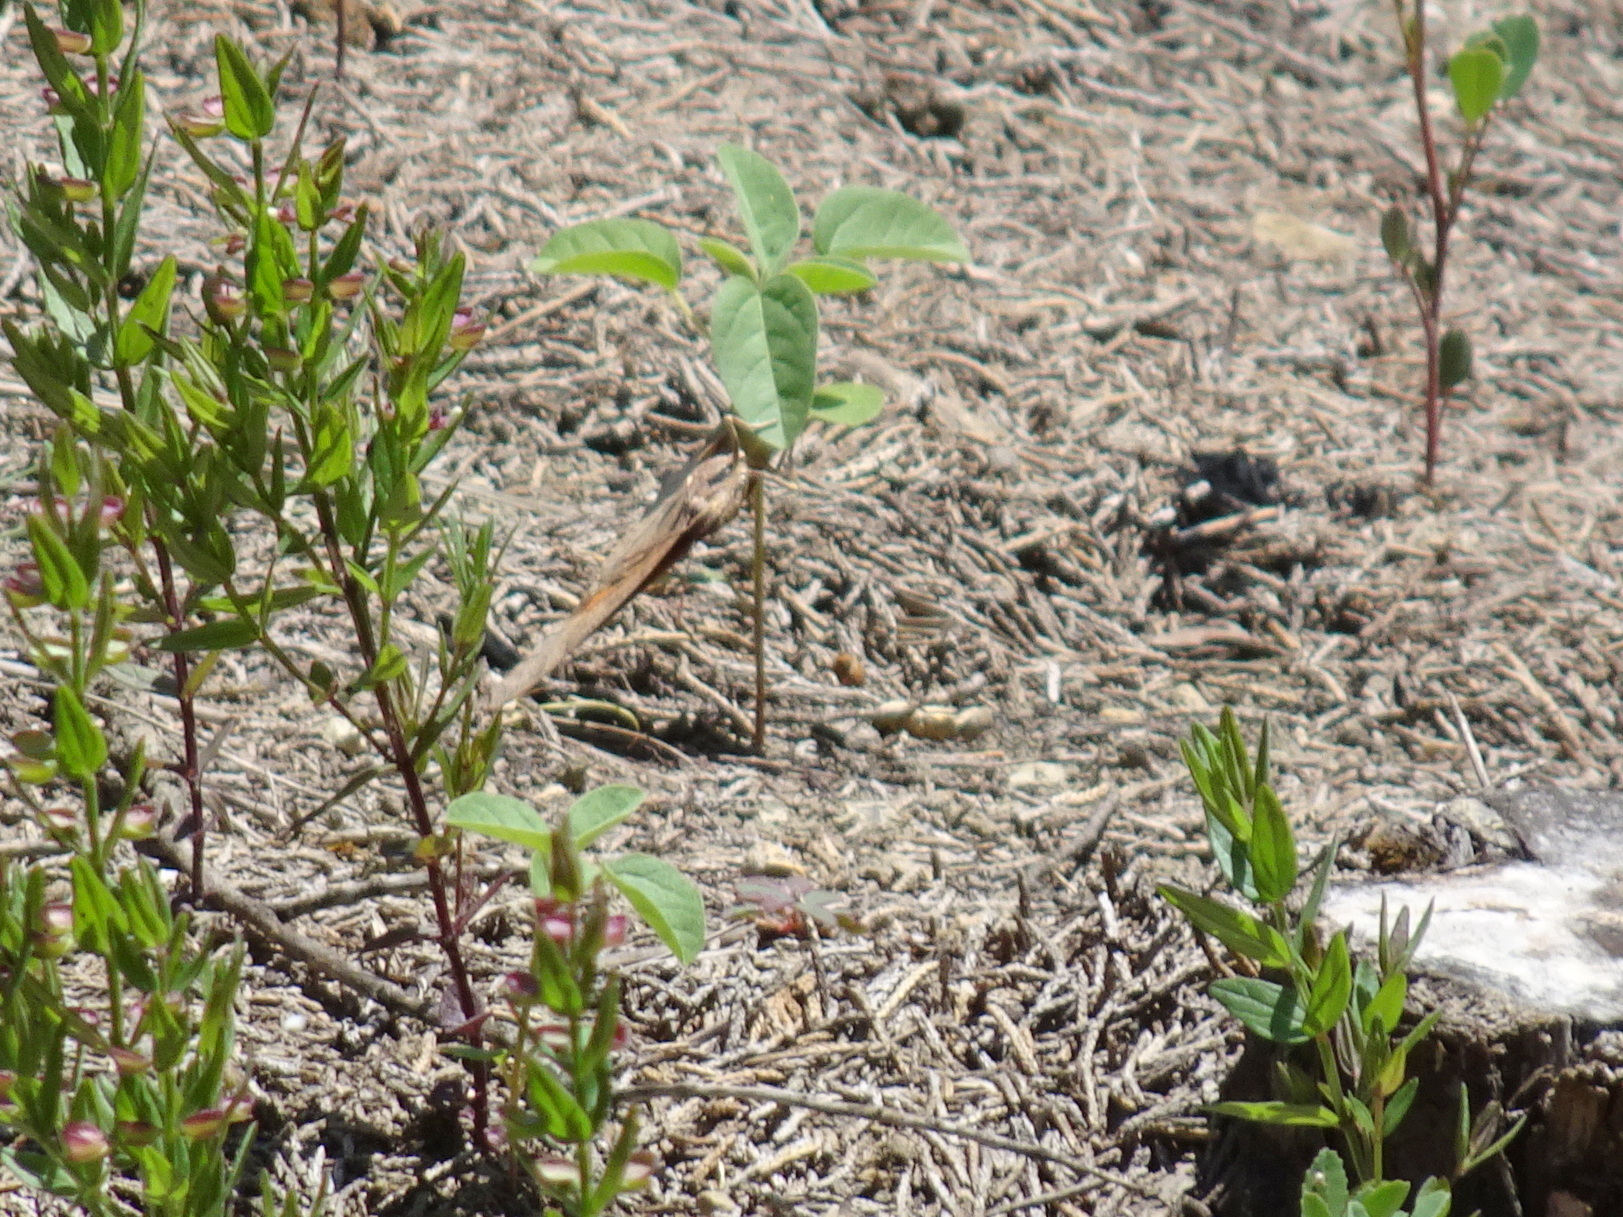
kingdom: Animalia
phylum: Arthropoda
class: Insecta
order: Lepidoptera
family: Nymphalidae
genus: Anaea
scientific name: Anaea andria
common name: Goatweed leafwing
